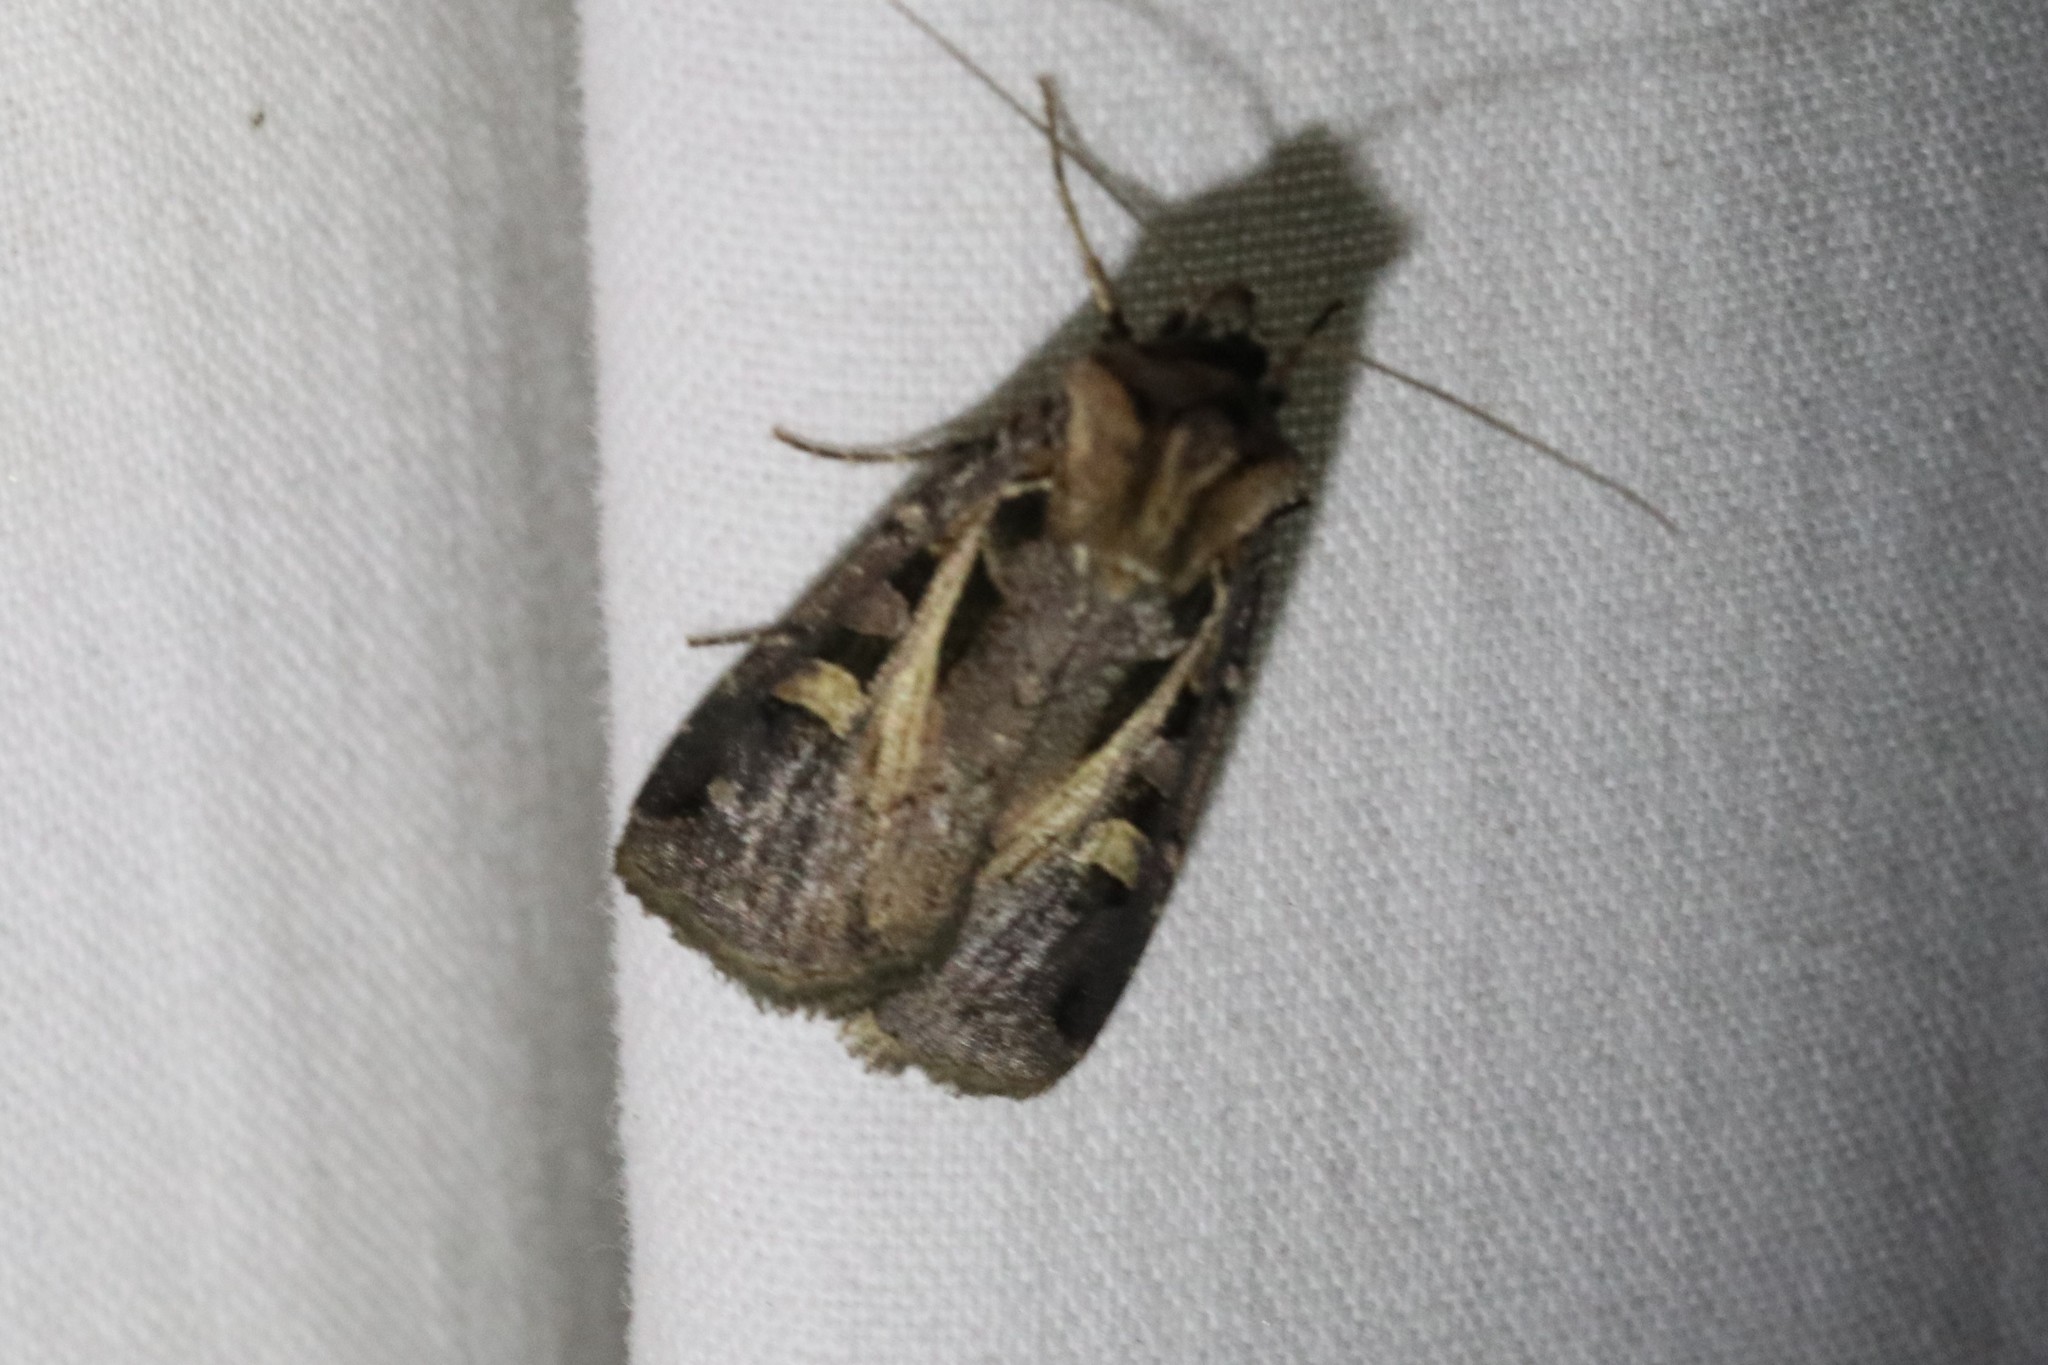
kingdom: Animalia
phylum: Arthropoda
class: Insecta
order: Lepidoptera
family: Noctuidae
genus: Feltia
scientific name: Feltia herilis
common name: Master's dart
